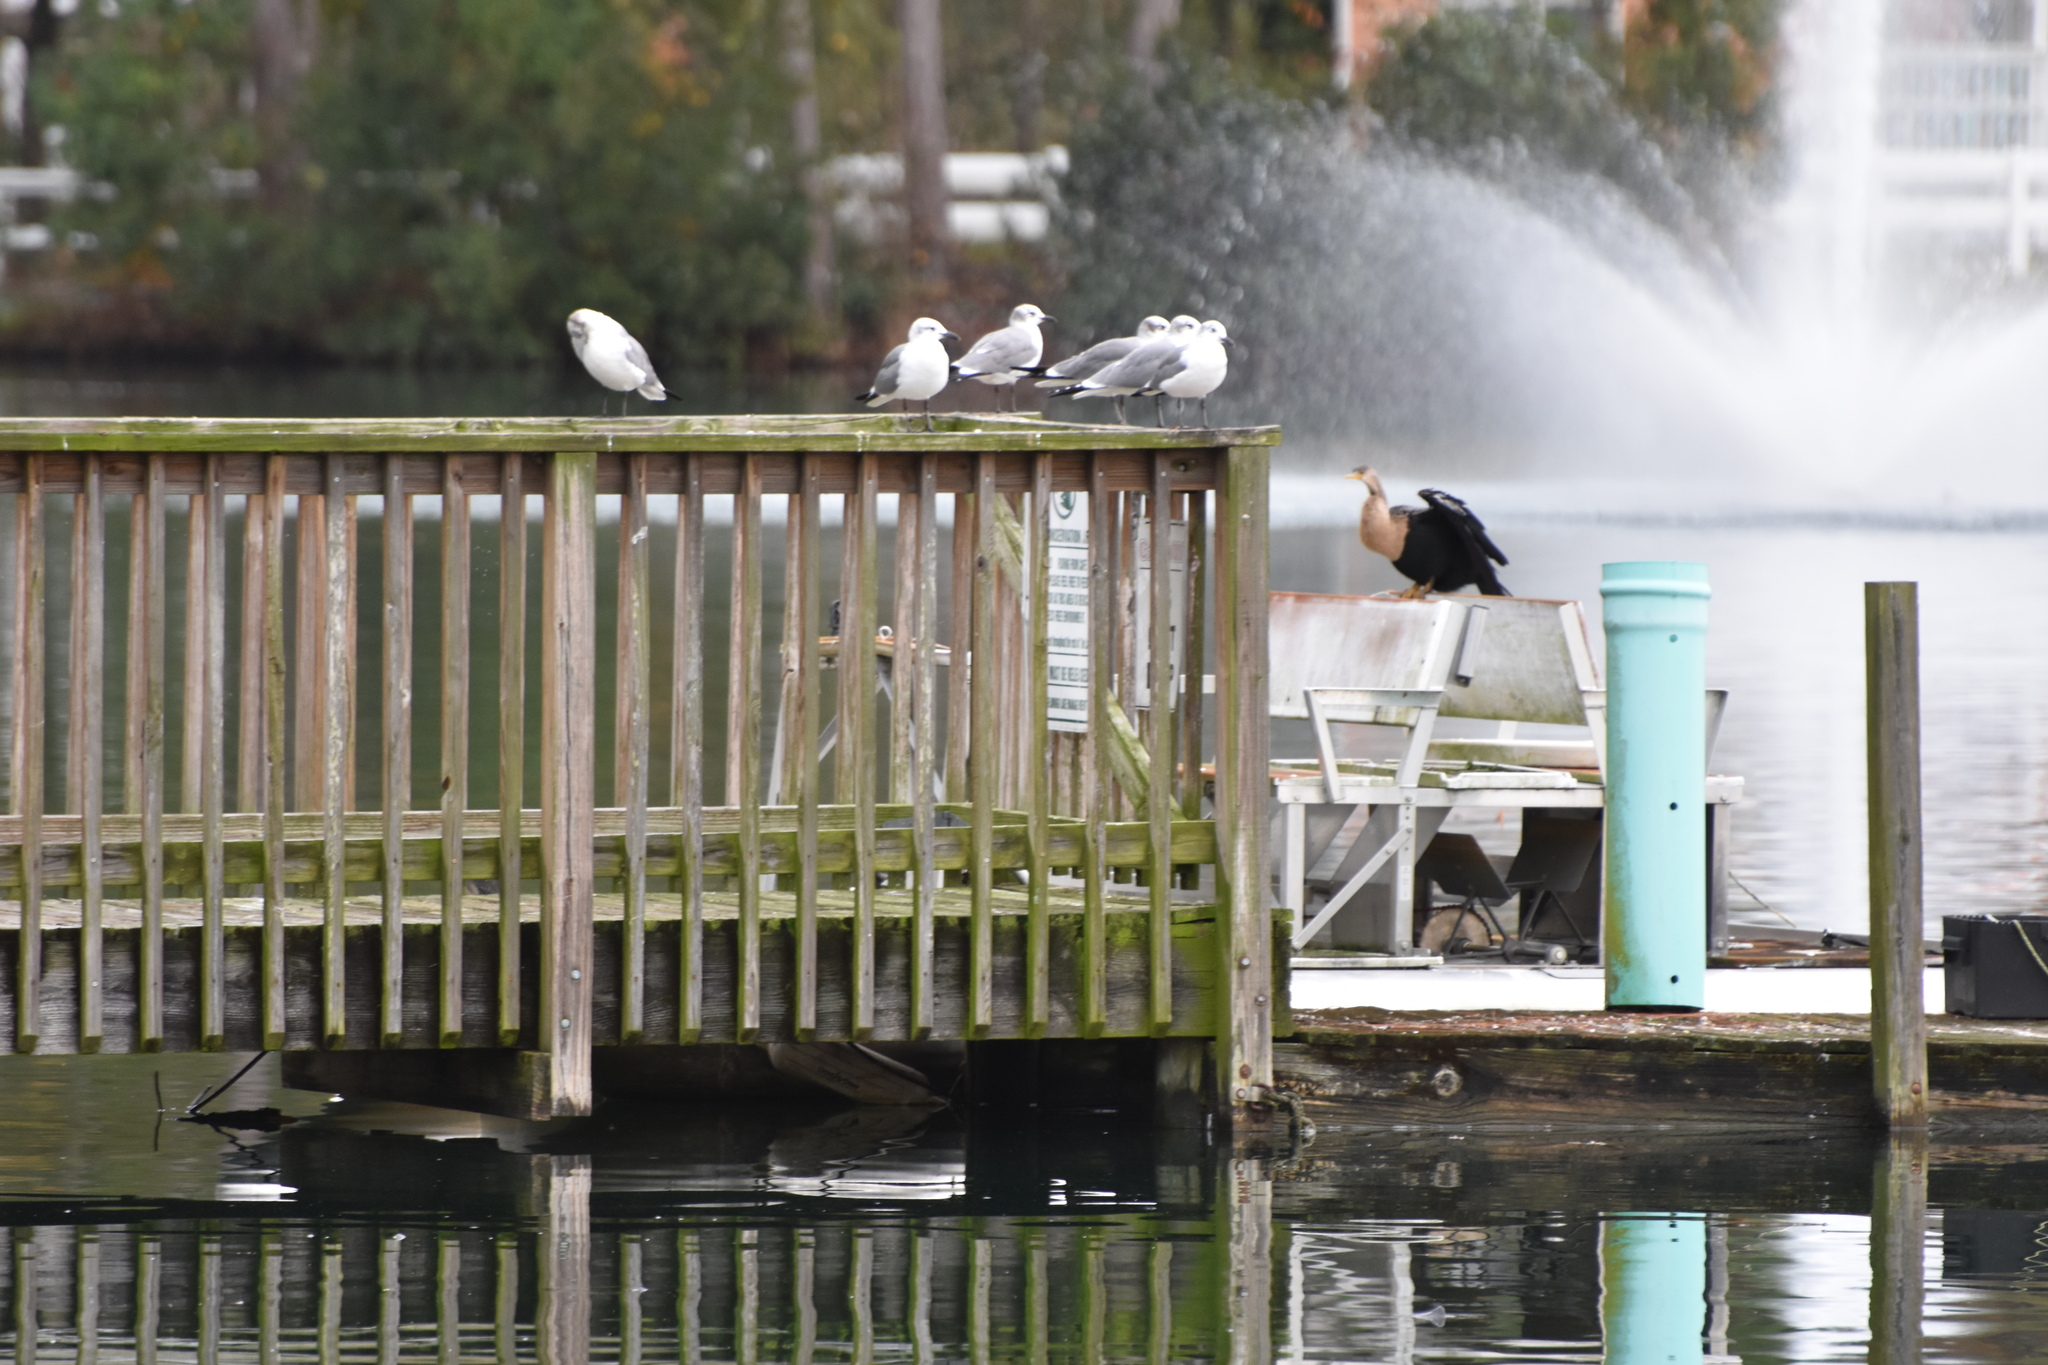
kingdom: Animalia
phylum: Chordata
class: Aves
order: Charadriiformes
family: Laridae
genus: Leucophaeus
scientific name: Leucophaeus atricilla
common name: Laughing gull
